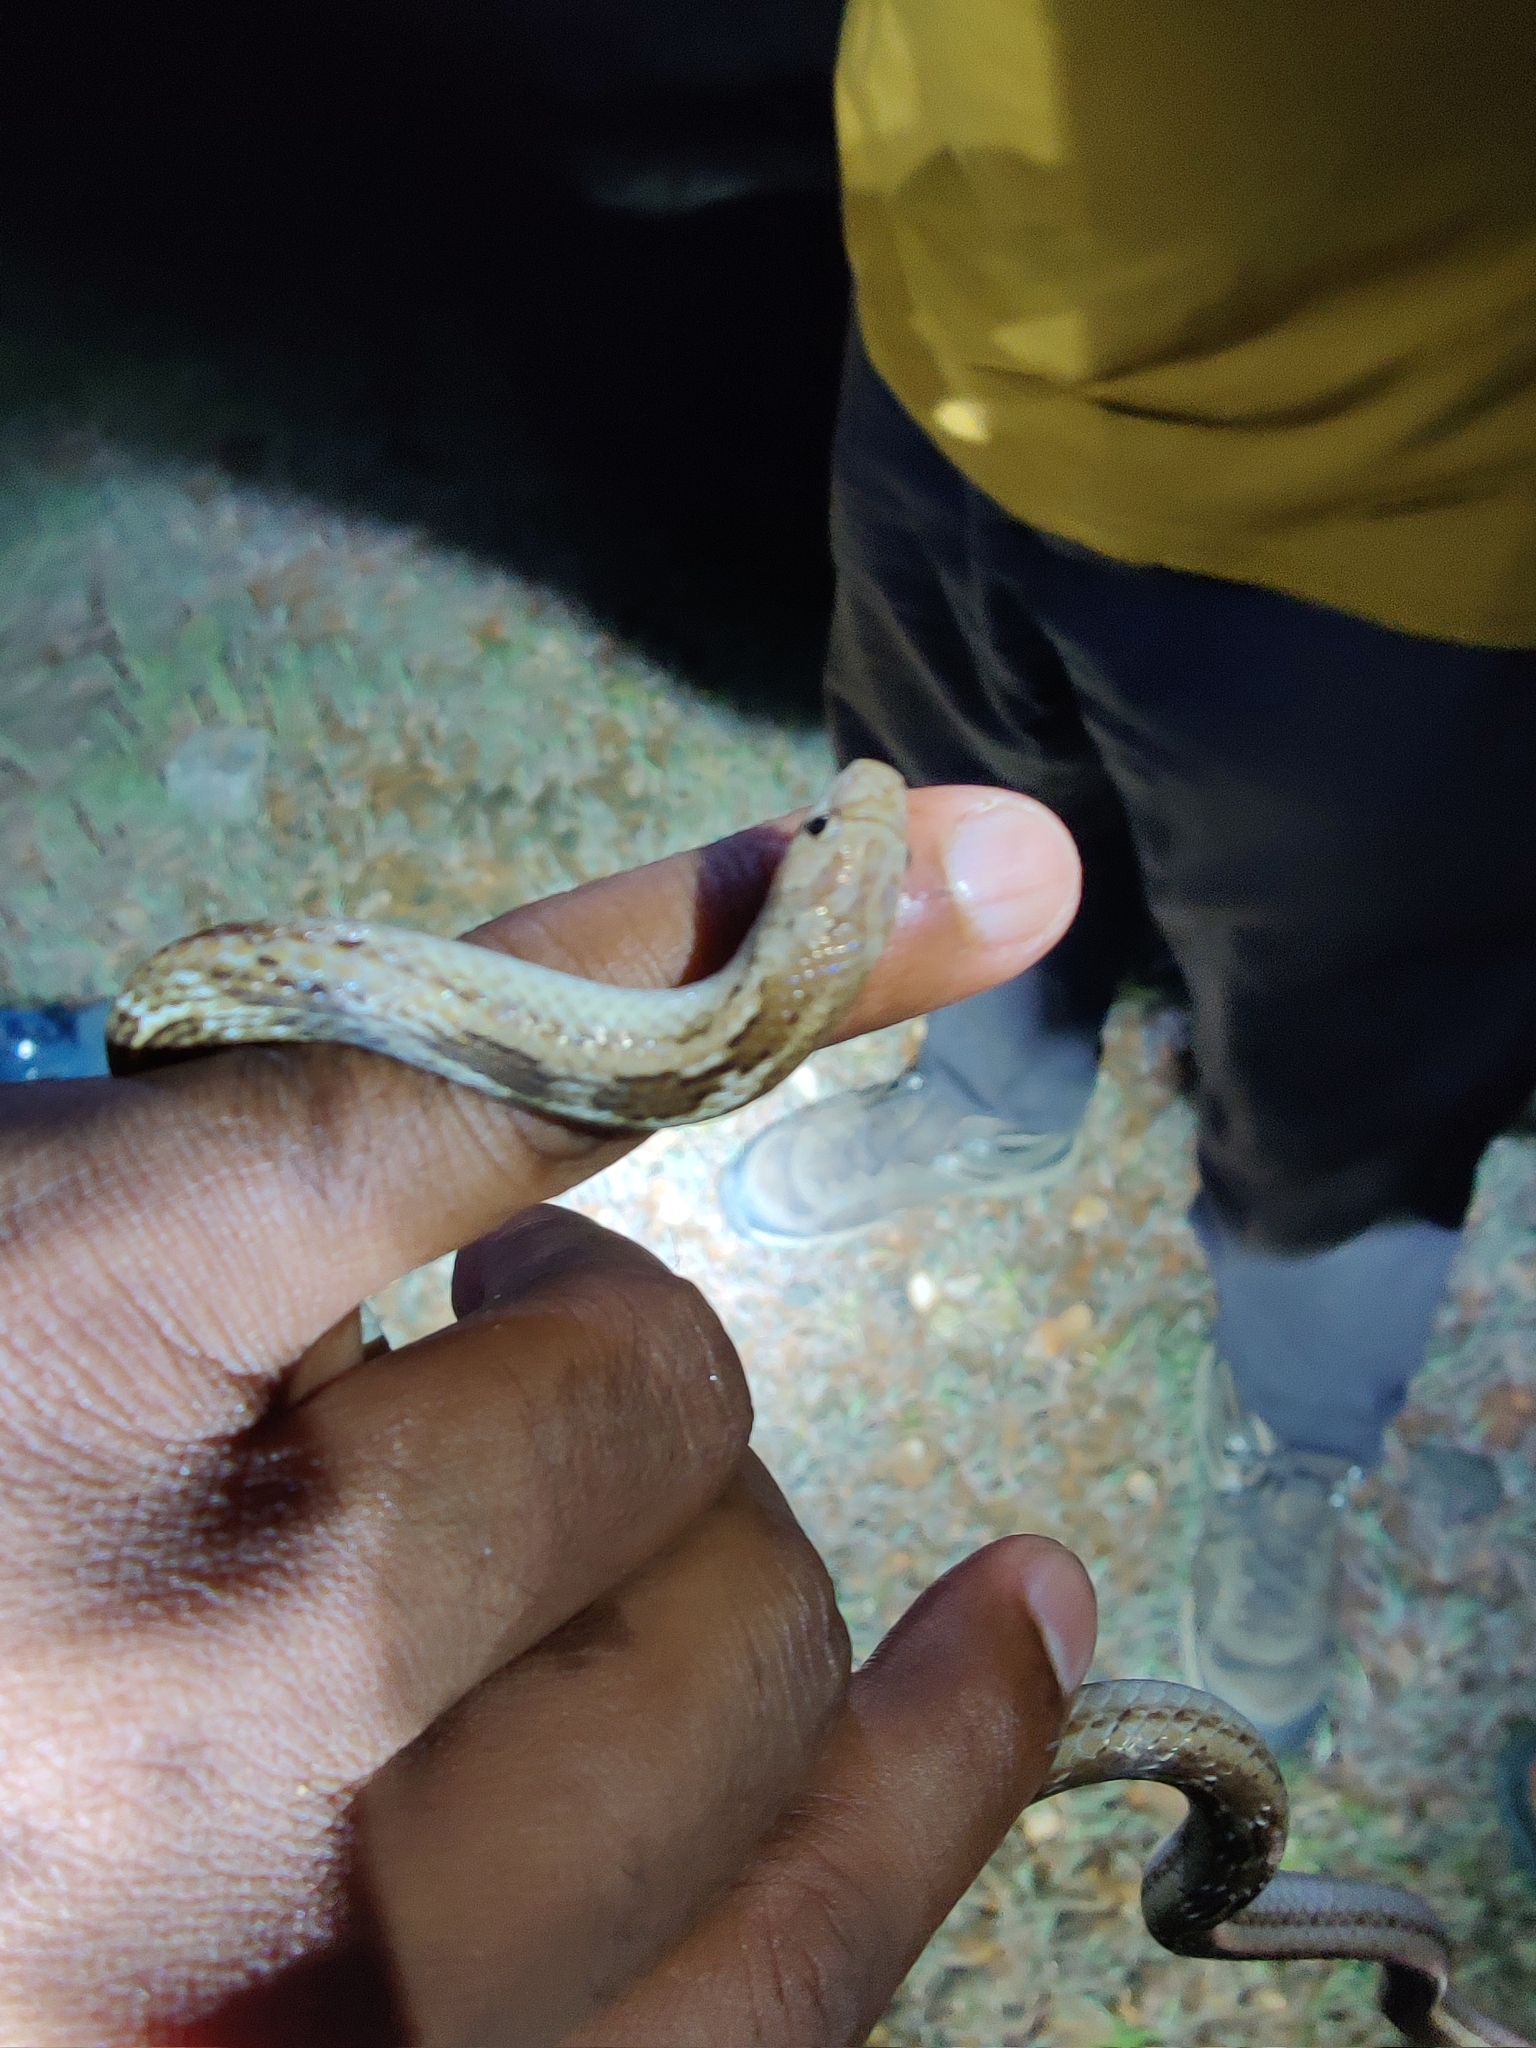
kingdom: Animalia
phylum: Chordata
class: Squamata
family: Colubridae
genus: Oligodon
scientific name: Oligodon taeniolatus
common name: Loos snake
